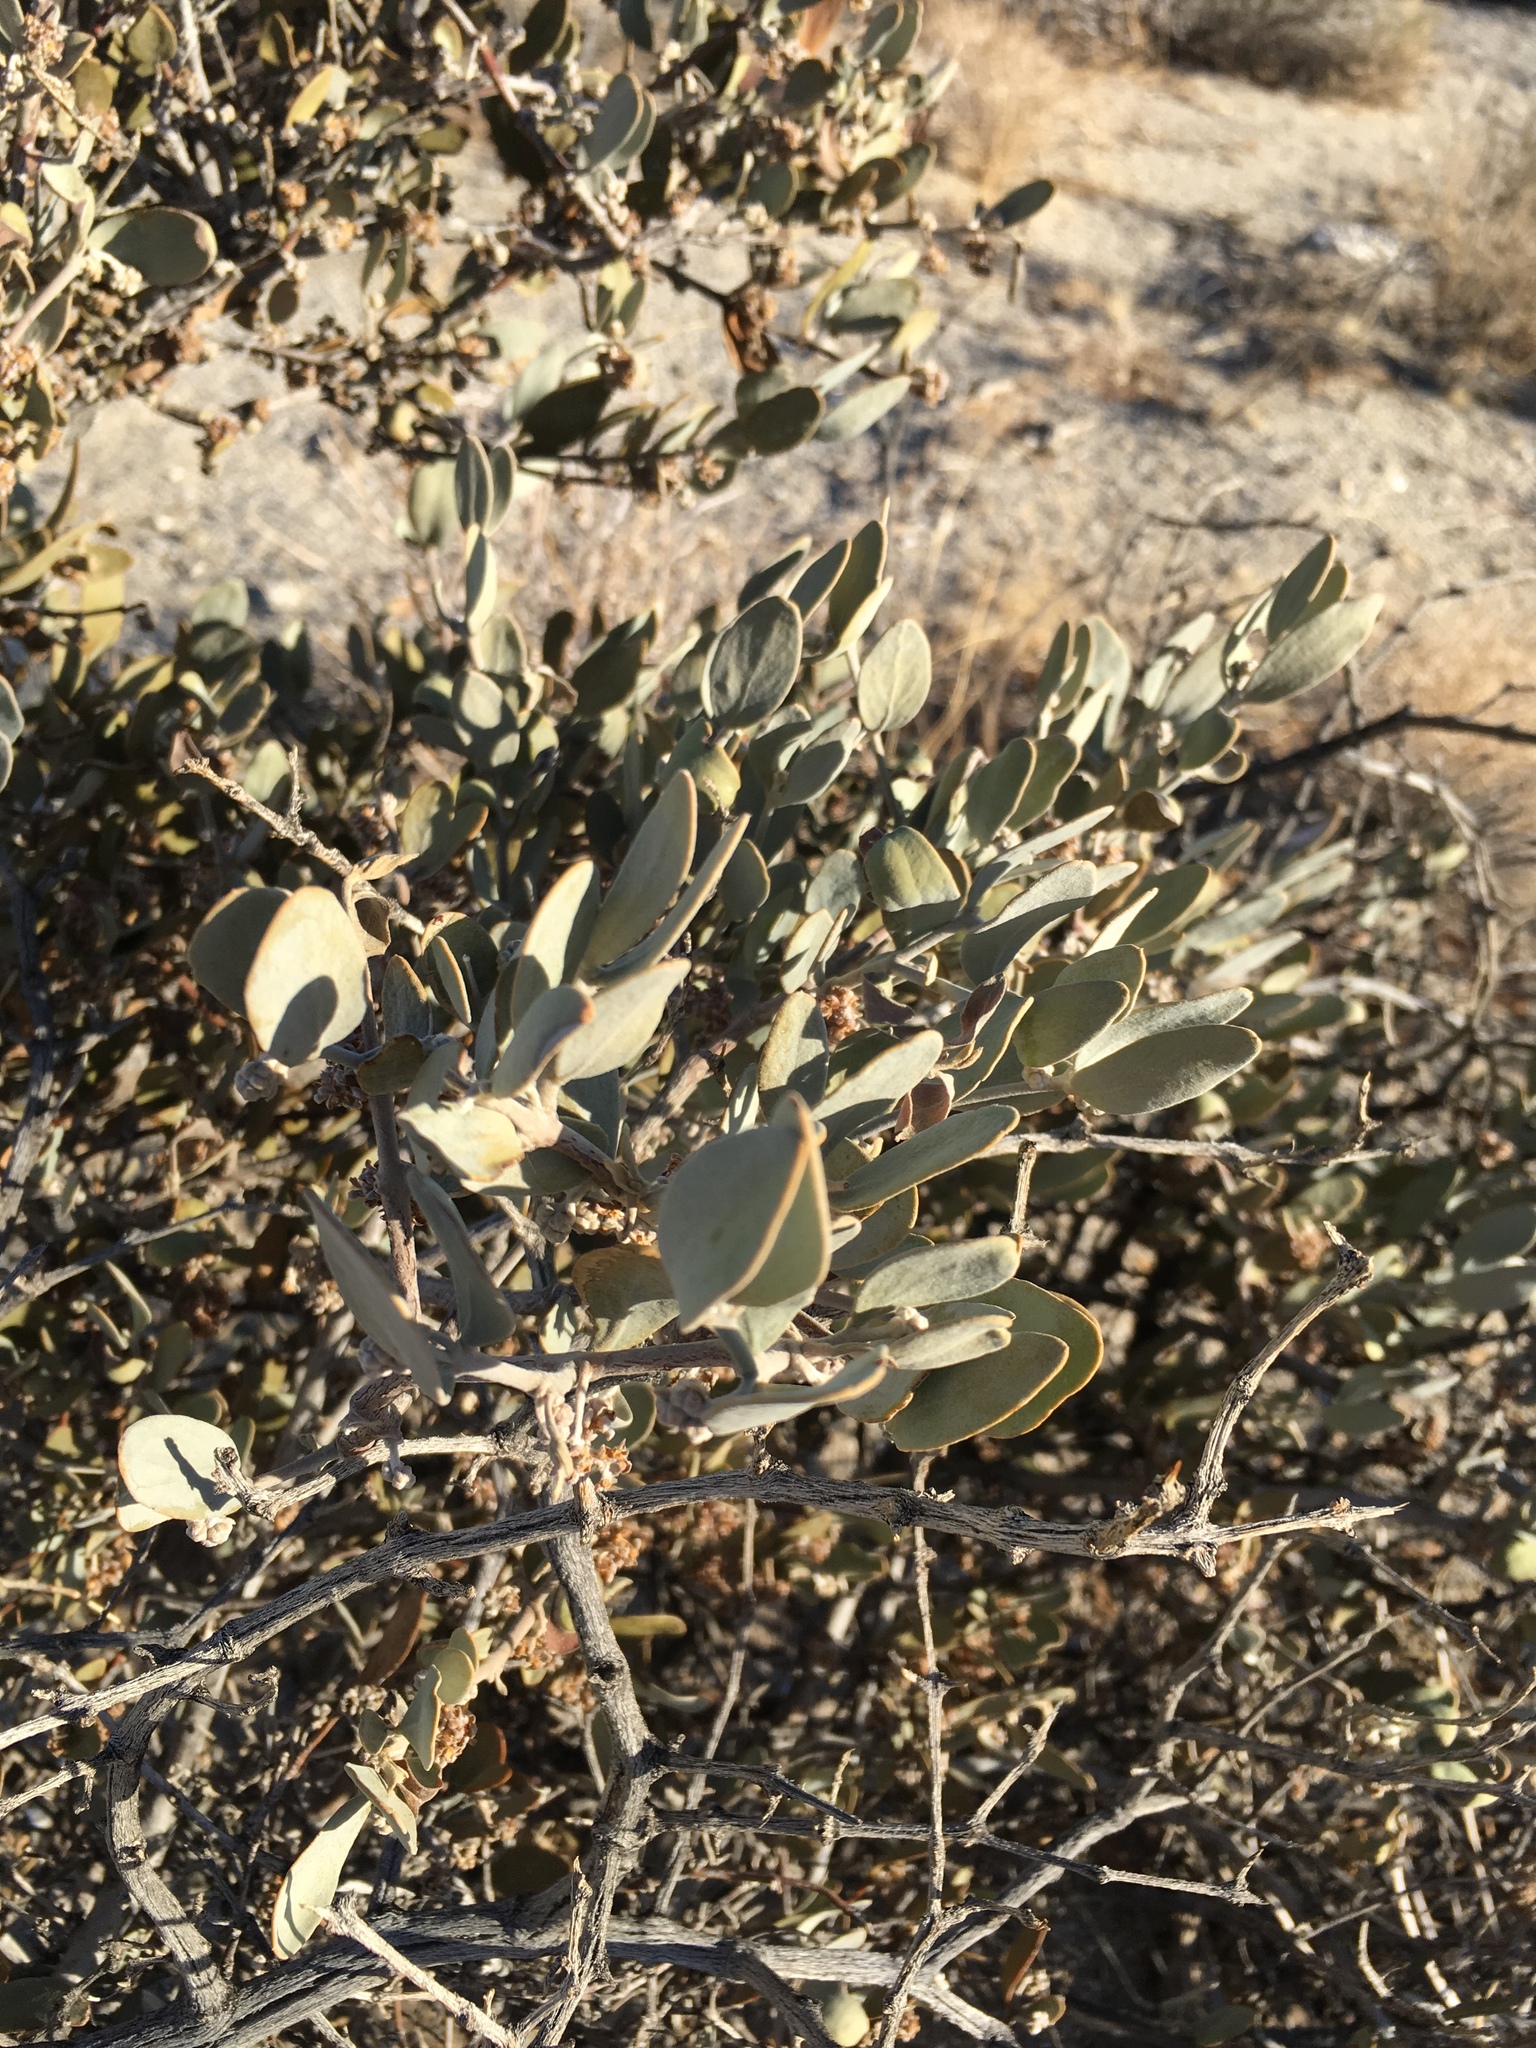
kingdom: Plantae
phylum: Tracheophyta
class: Magnoliopsida
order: Caryophyllales
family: Simmondsiaceae
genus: Simmondsia
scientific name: Simmondsia chinensis
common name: Jojoba
